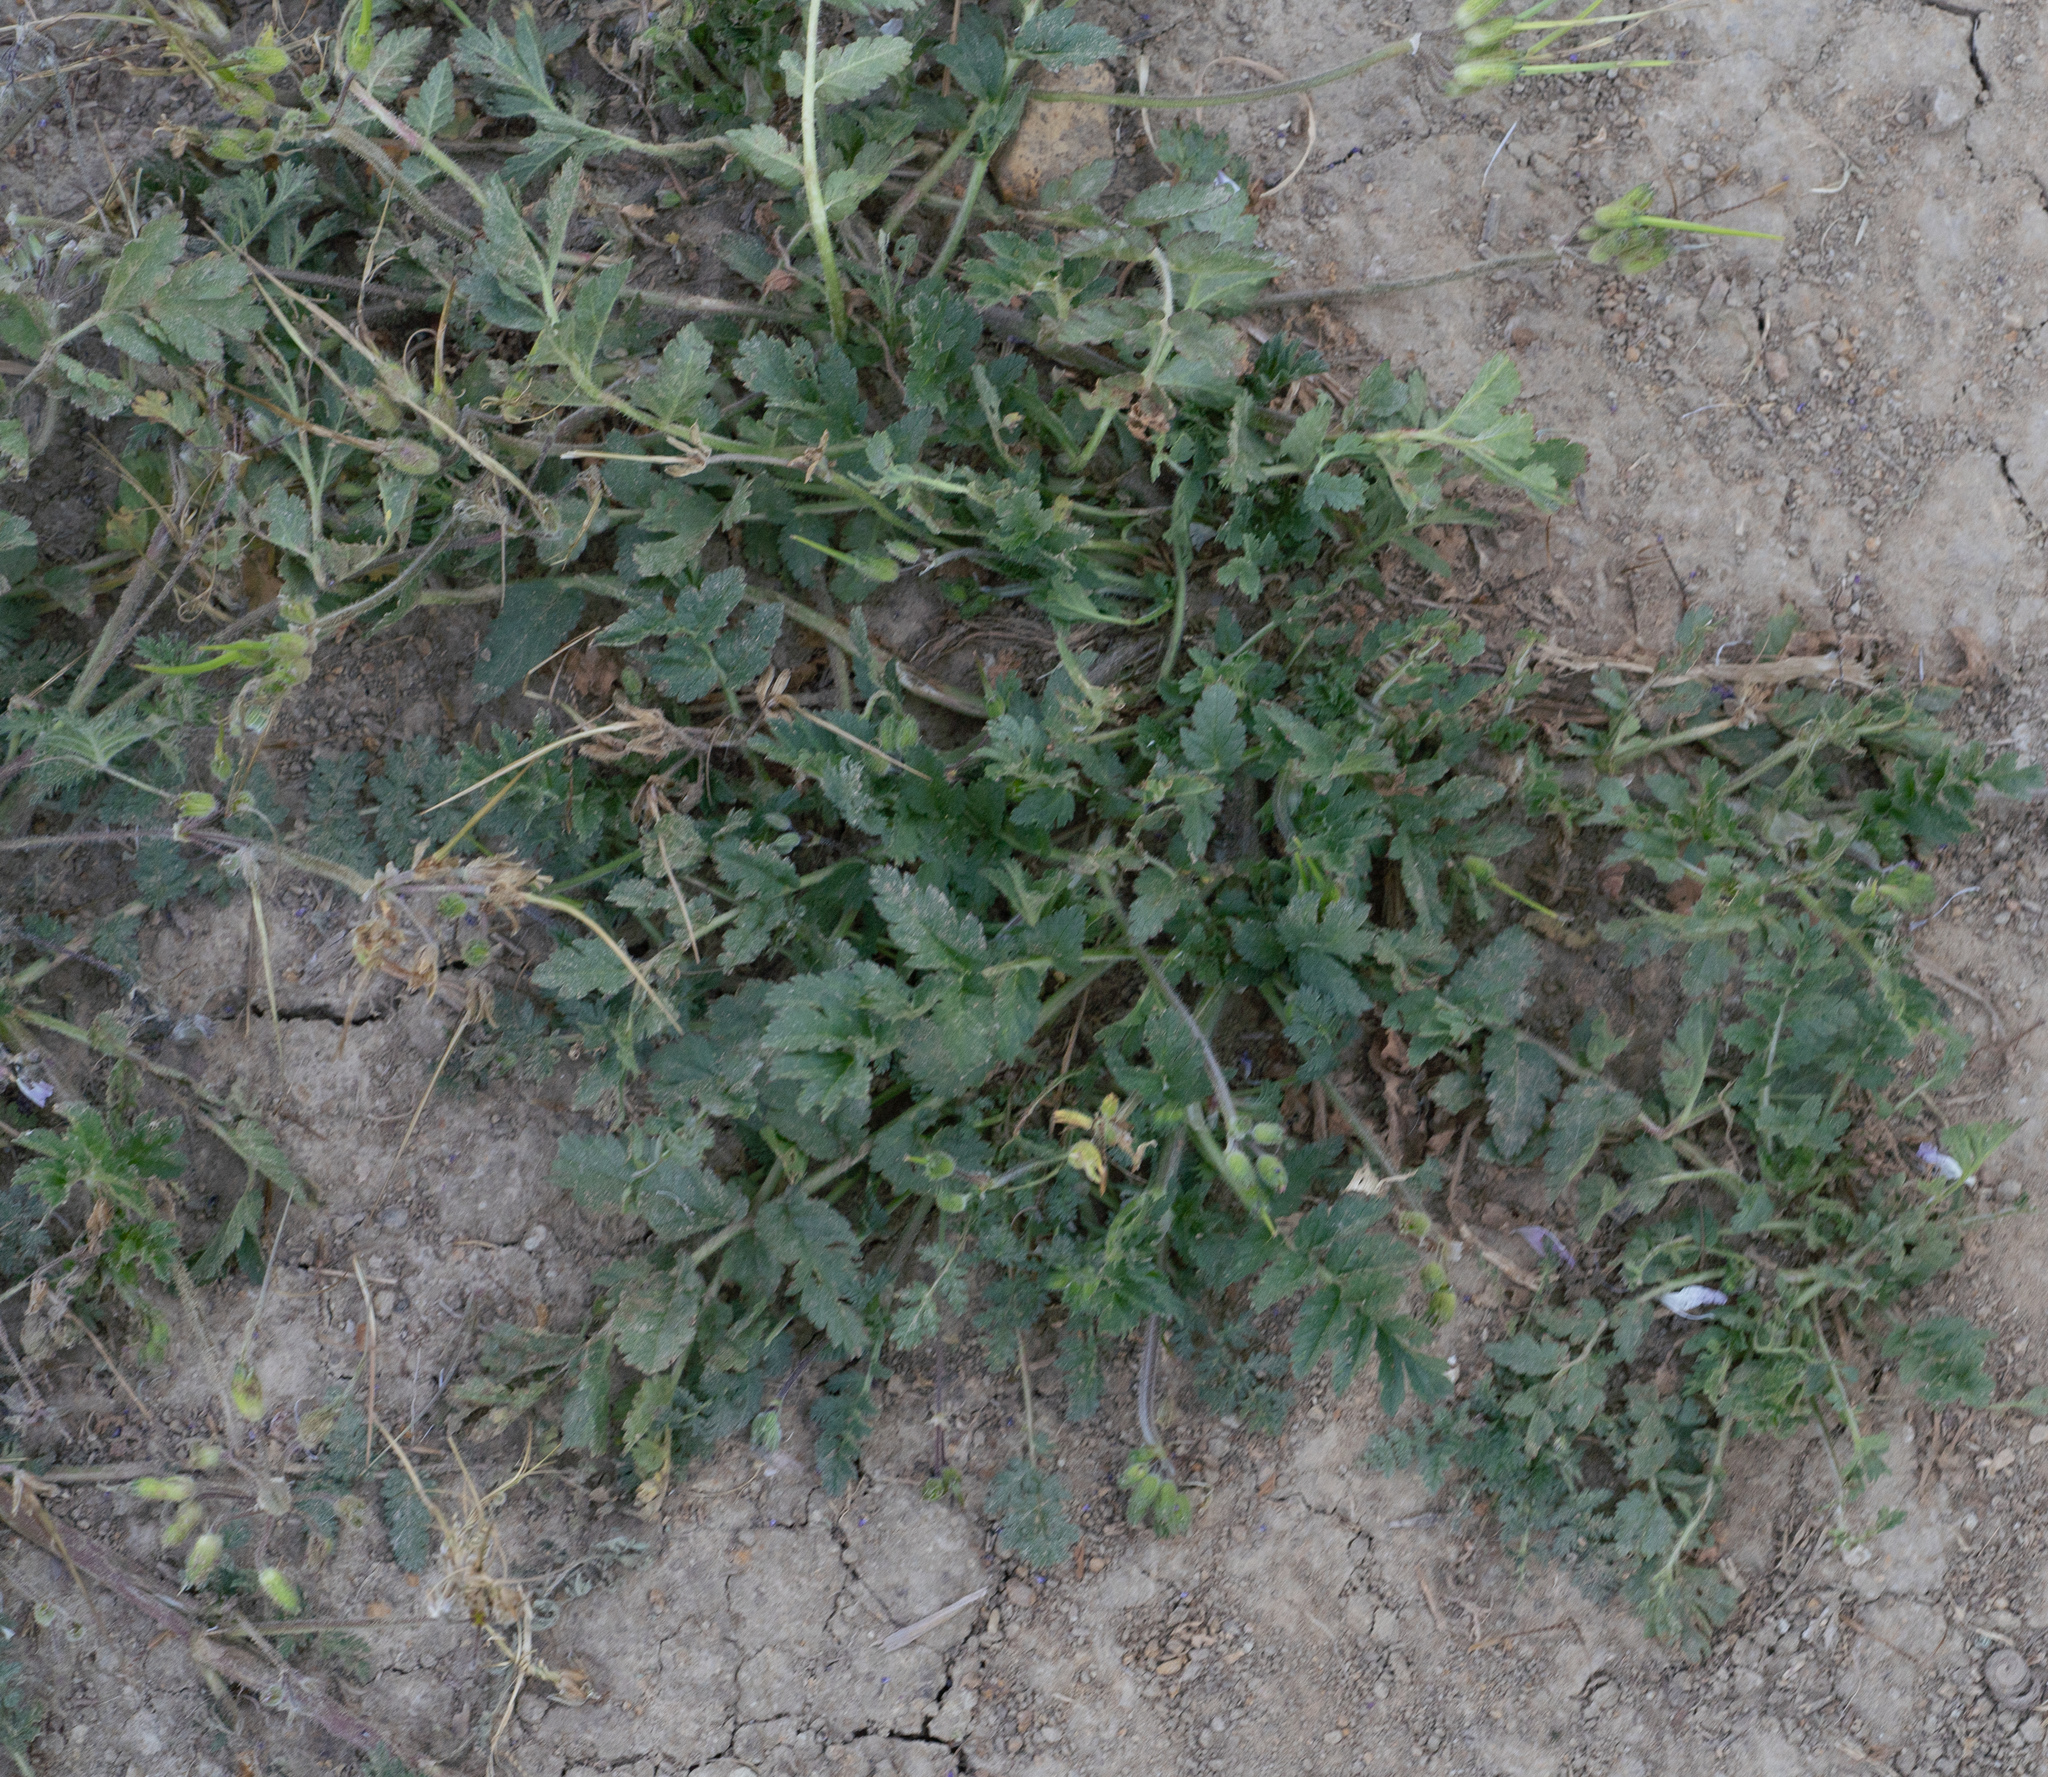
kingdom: Plantae
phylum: Tracheophyta
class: Magnoliopsida
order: Geraniales
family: Geraniaceae
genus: Erodium
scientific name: Erodium moschatum
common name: Musk stork's-bill
